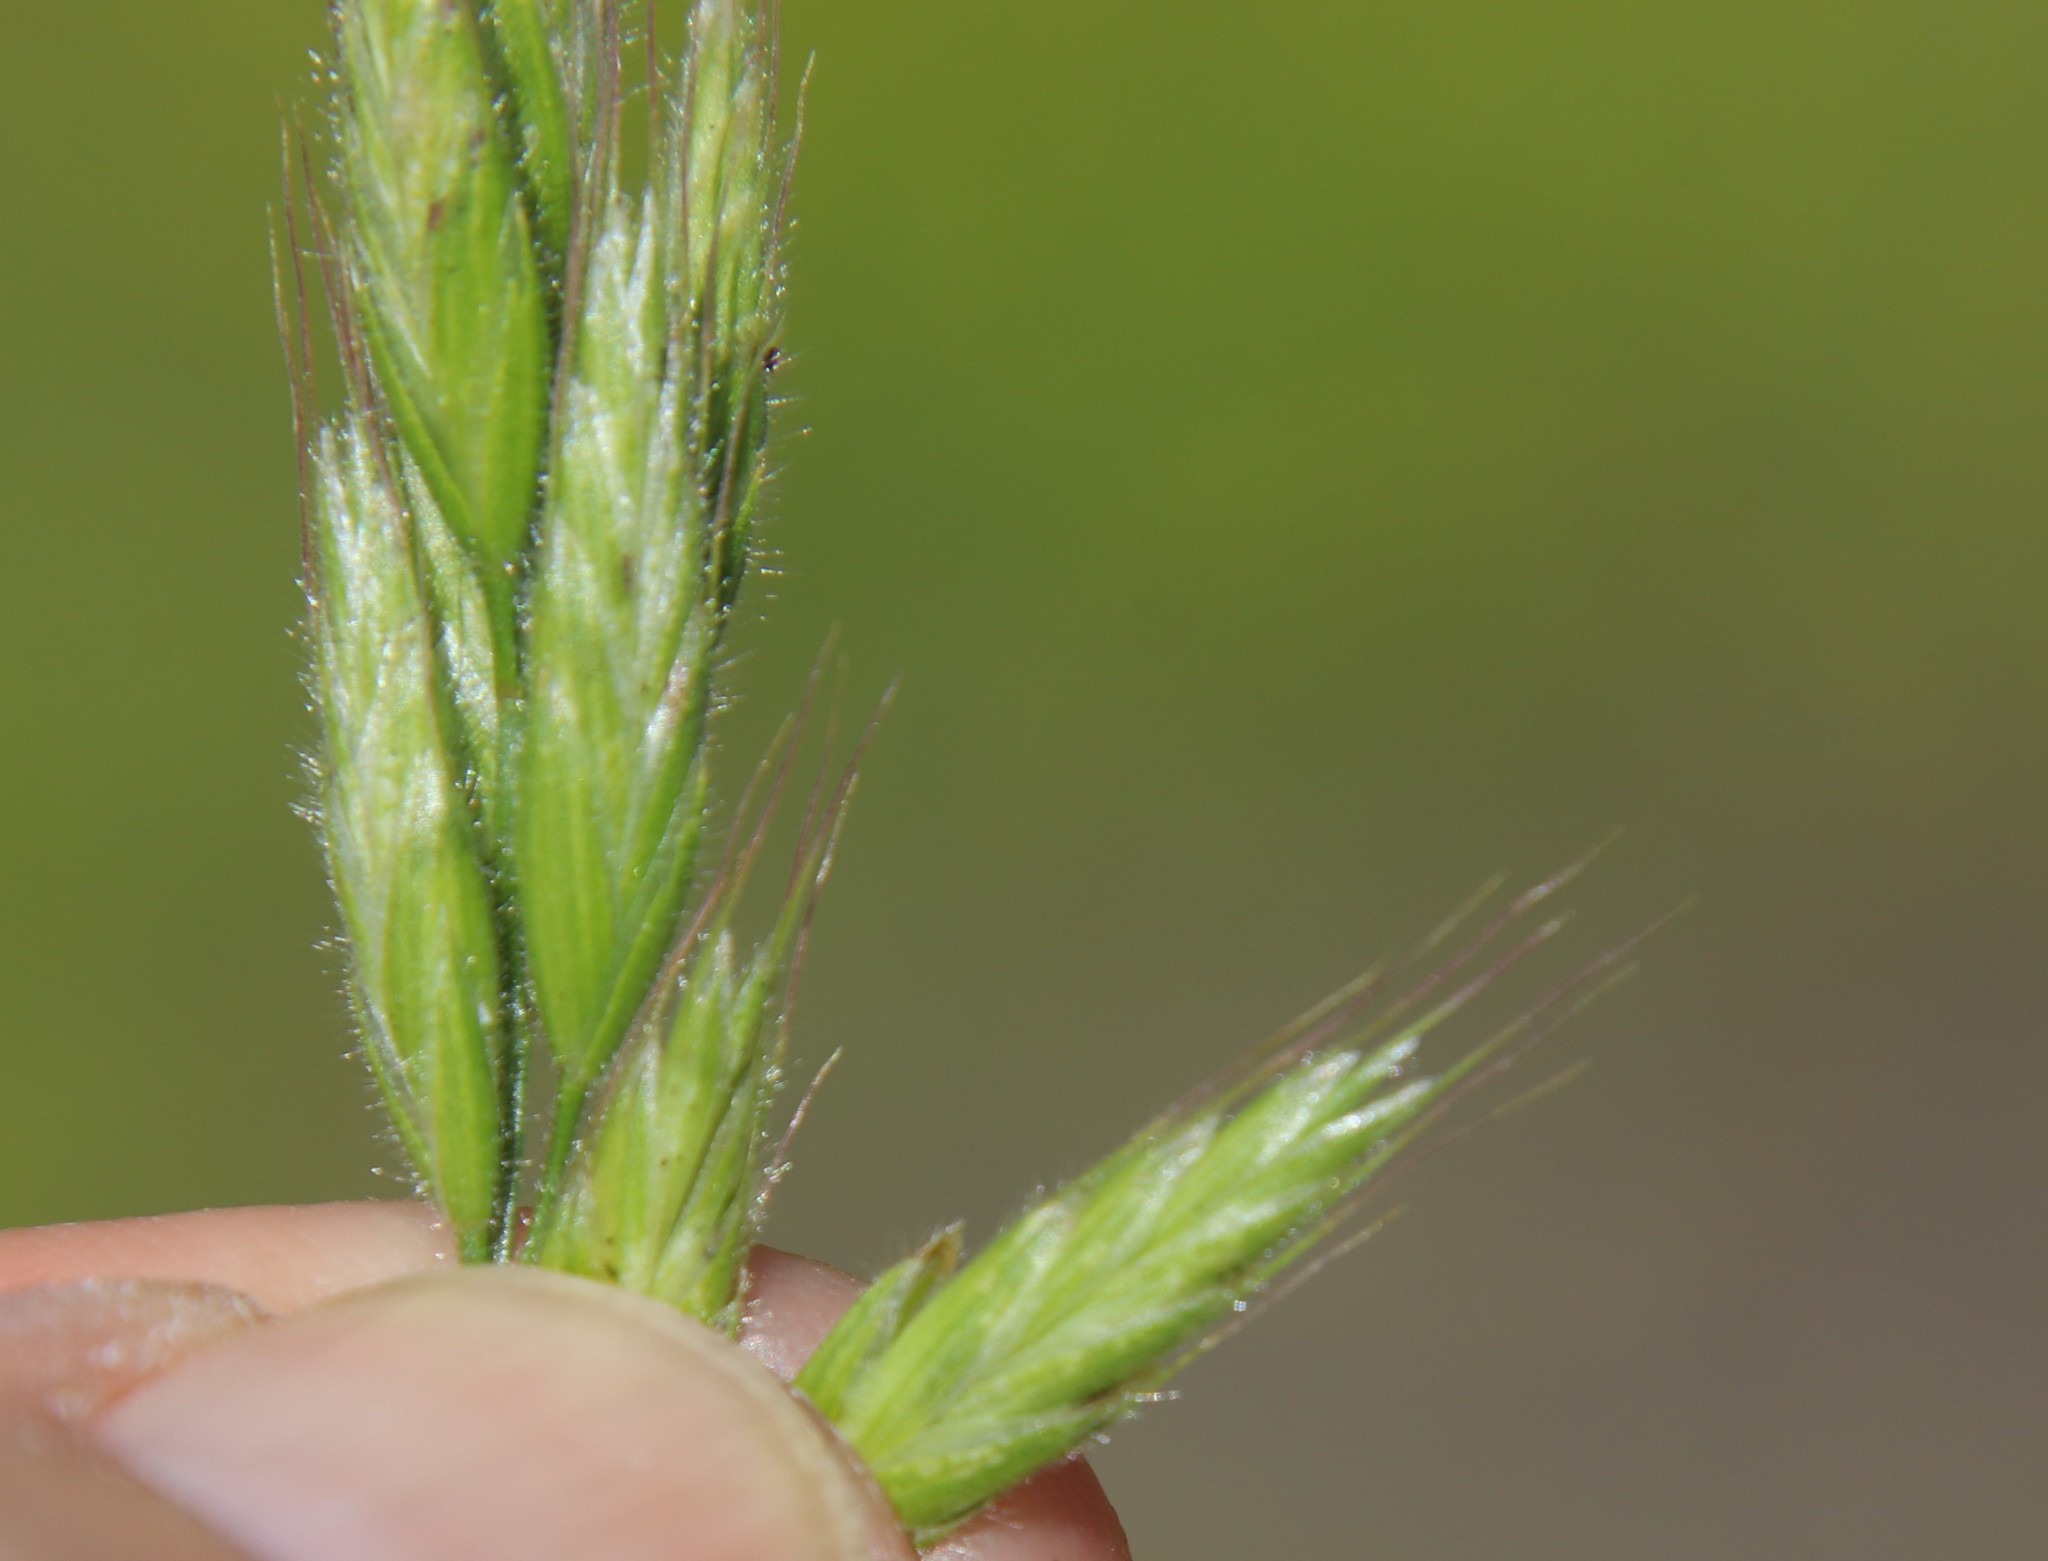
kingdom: Plantae
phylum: Tracheophyta
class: Liliopsida
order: Poales
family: Poaceae
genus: Bromus
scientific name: Bromus hordeaceus
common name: Soft brome
